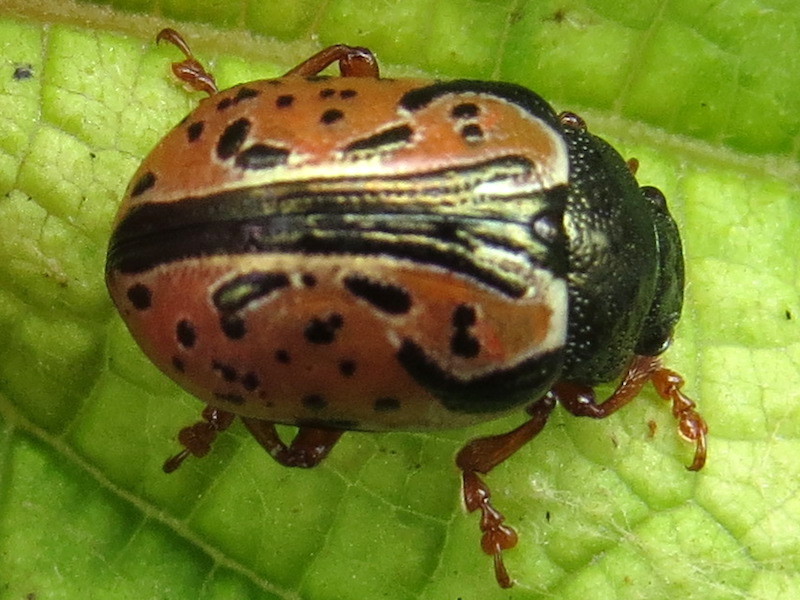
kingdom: Animalia
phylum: Arthropoda
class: Insecta
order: Coleoptera
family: Chrysomelidae
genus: Calligrapha
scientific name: Calligrapha spiraeae
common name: Ninebark calligrapha beetle
